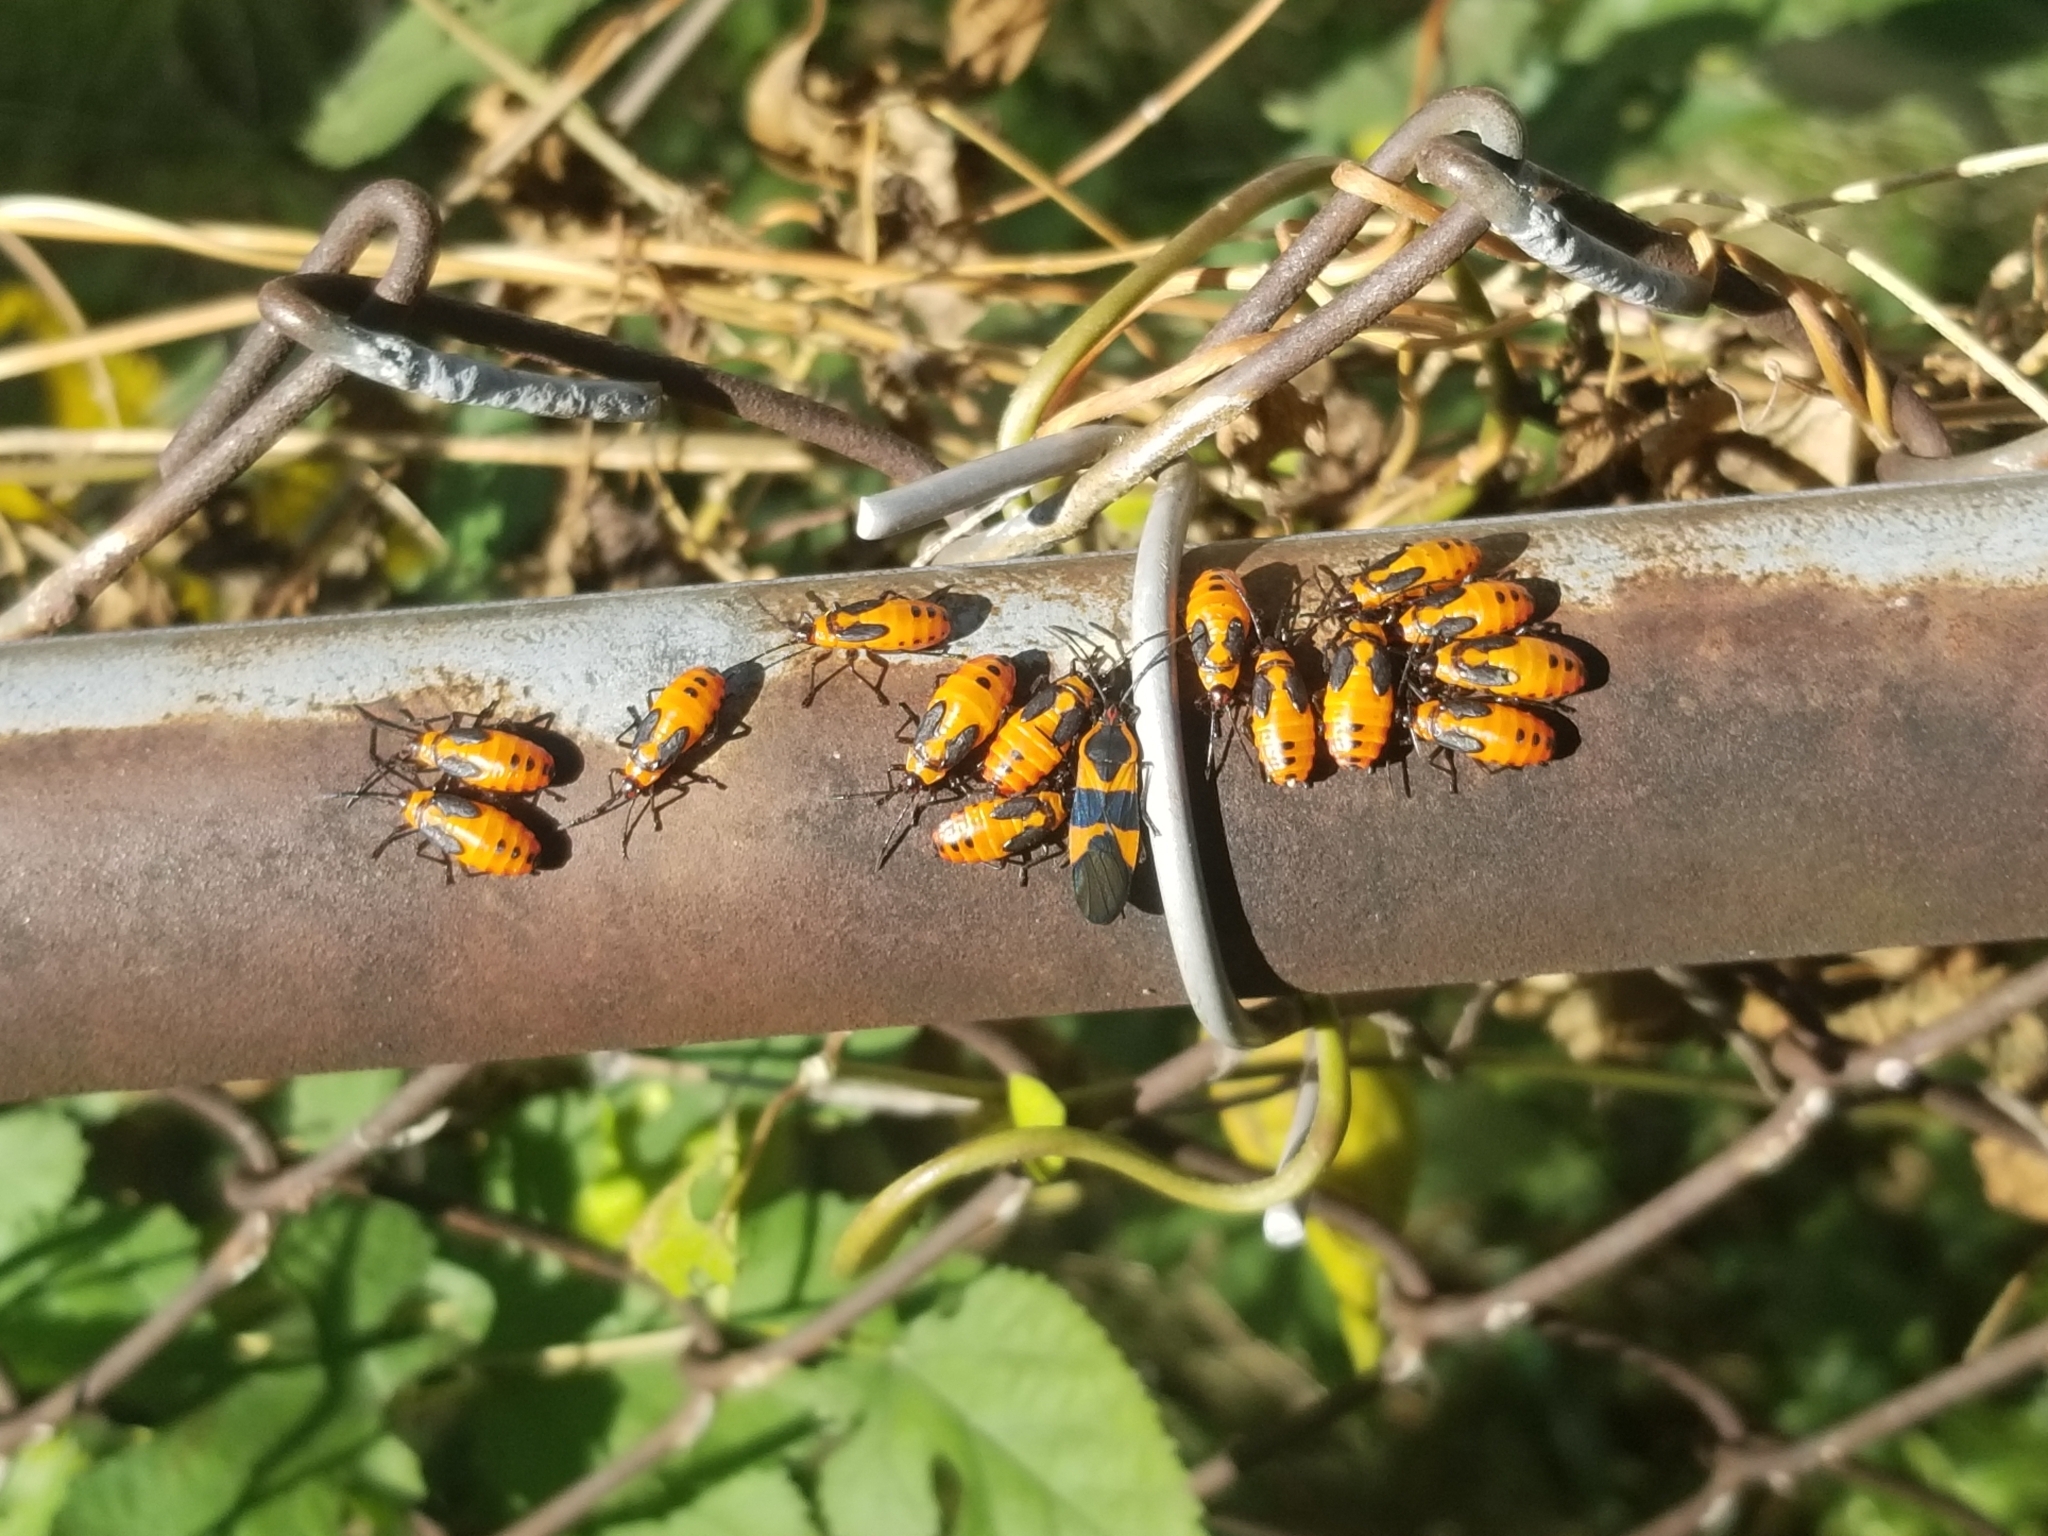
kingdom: Animalia
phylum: Arthropoda
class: Insecta
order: Hemiptera
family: Lygaeidae
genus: Oncopeltus
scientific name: Oncopeltus fasciatus
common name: Large milkweed bug
